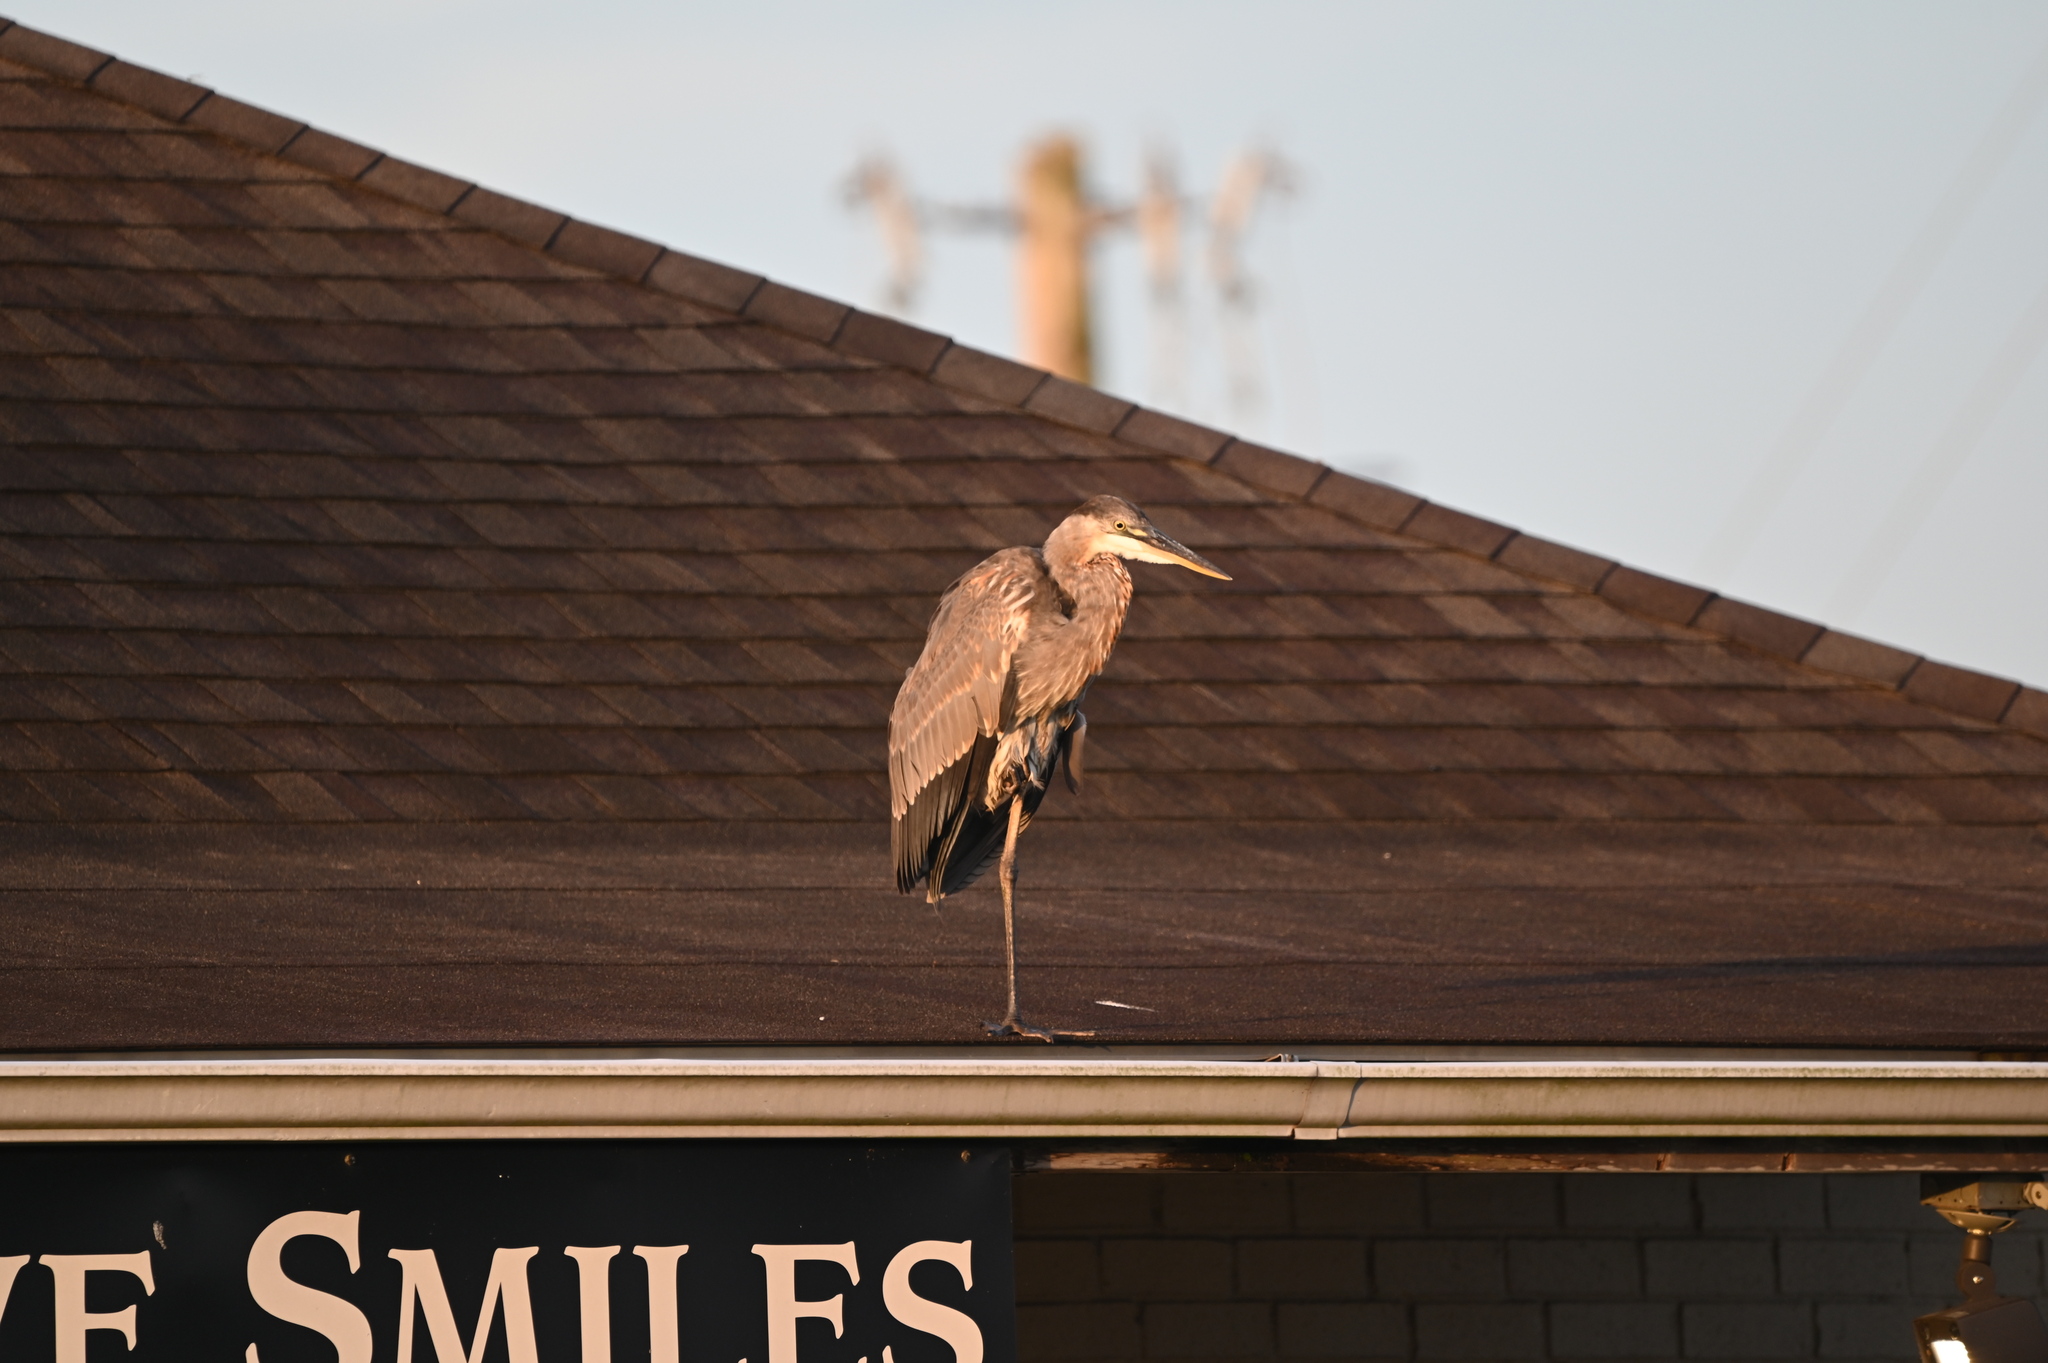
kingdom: Animalia
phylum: Chordata
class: Aves
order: Pelecaniformes
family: Ardeidae
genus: Ardea
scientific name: Ardea herodias
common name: Great blue heron
